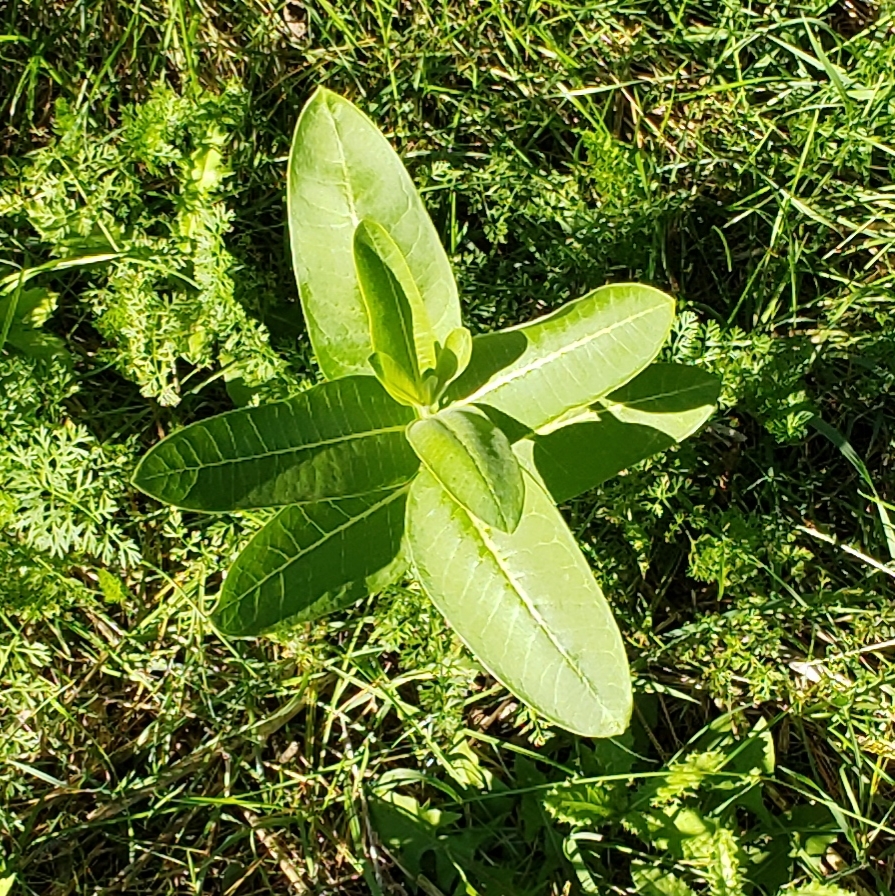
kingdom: Plantae
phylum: Tracheophyta
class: Magnoliopsida
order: Gentianales
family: Apocynaceae
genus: Asclepias
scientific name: Asclepias syriaca
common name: Common milkweed
